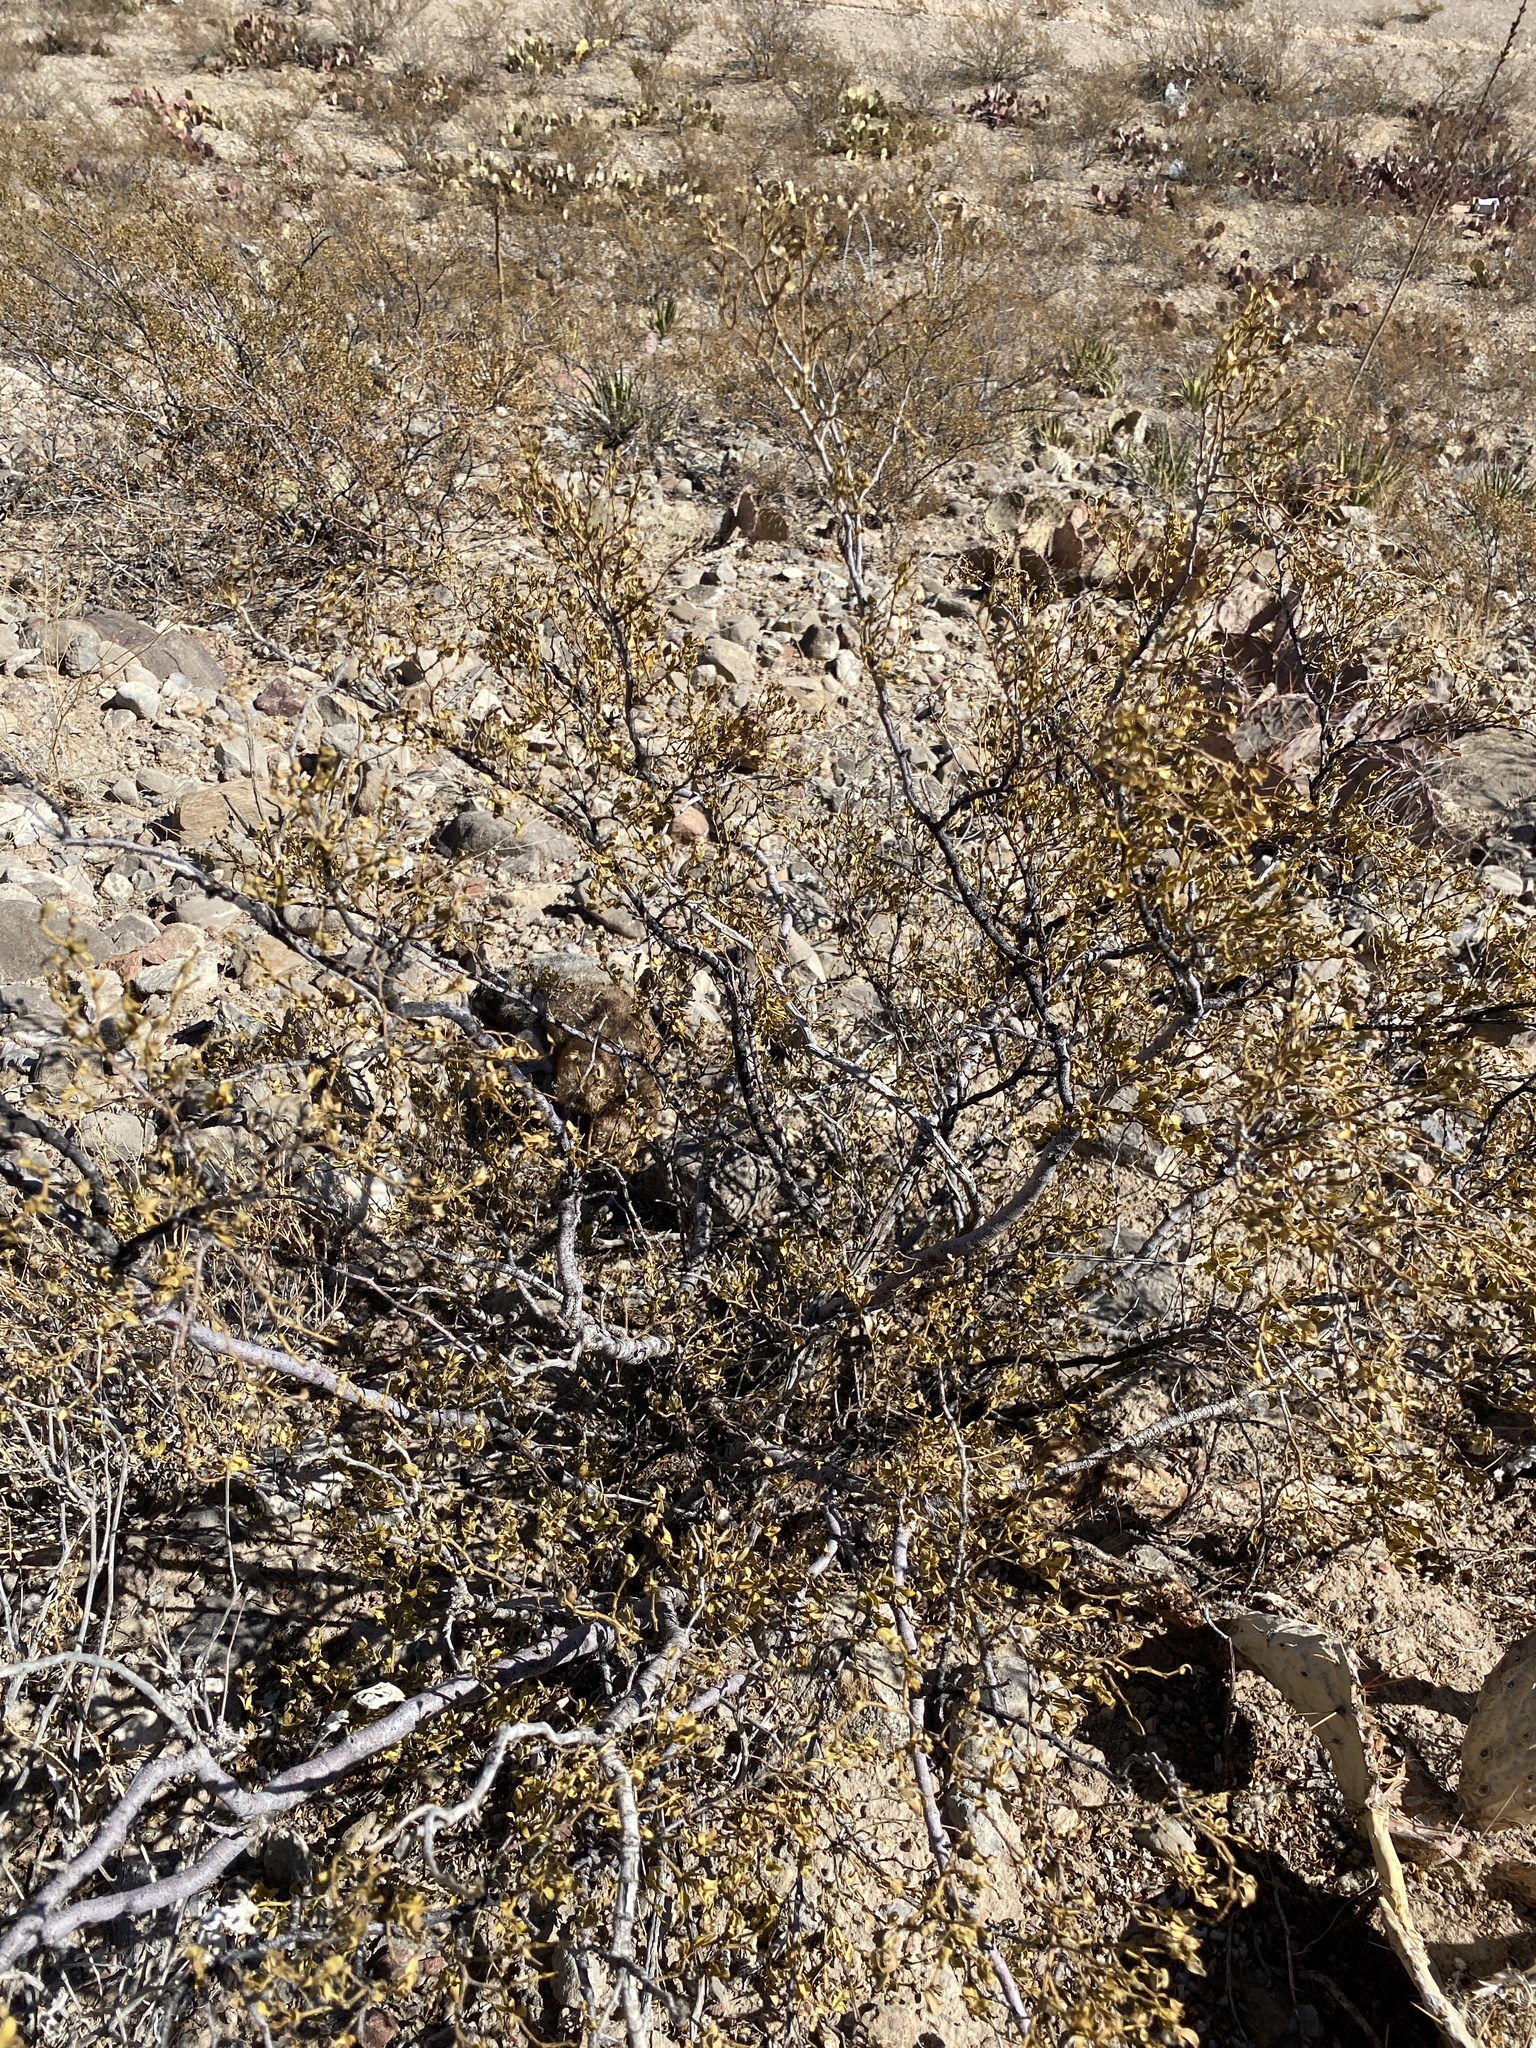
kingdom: Plantae
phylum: Tracheophyta
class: Magnoliopsida
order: Zygophyllales
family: Zygophyllaceae
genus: Larrea
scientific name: Larrea tridentata
